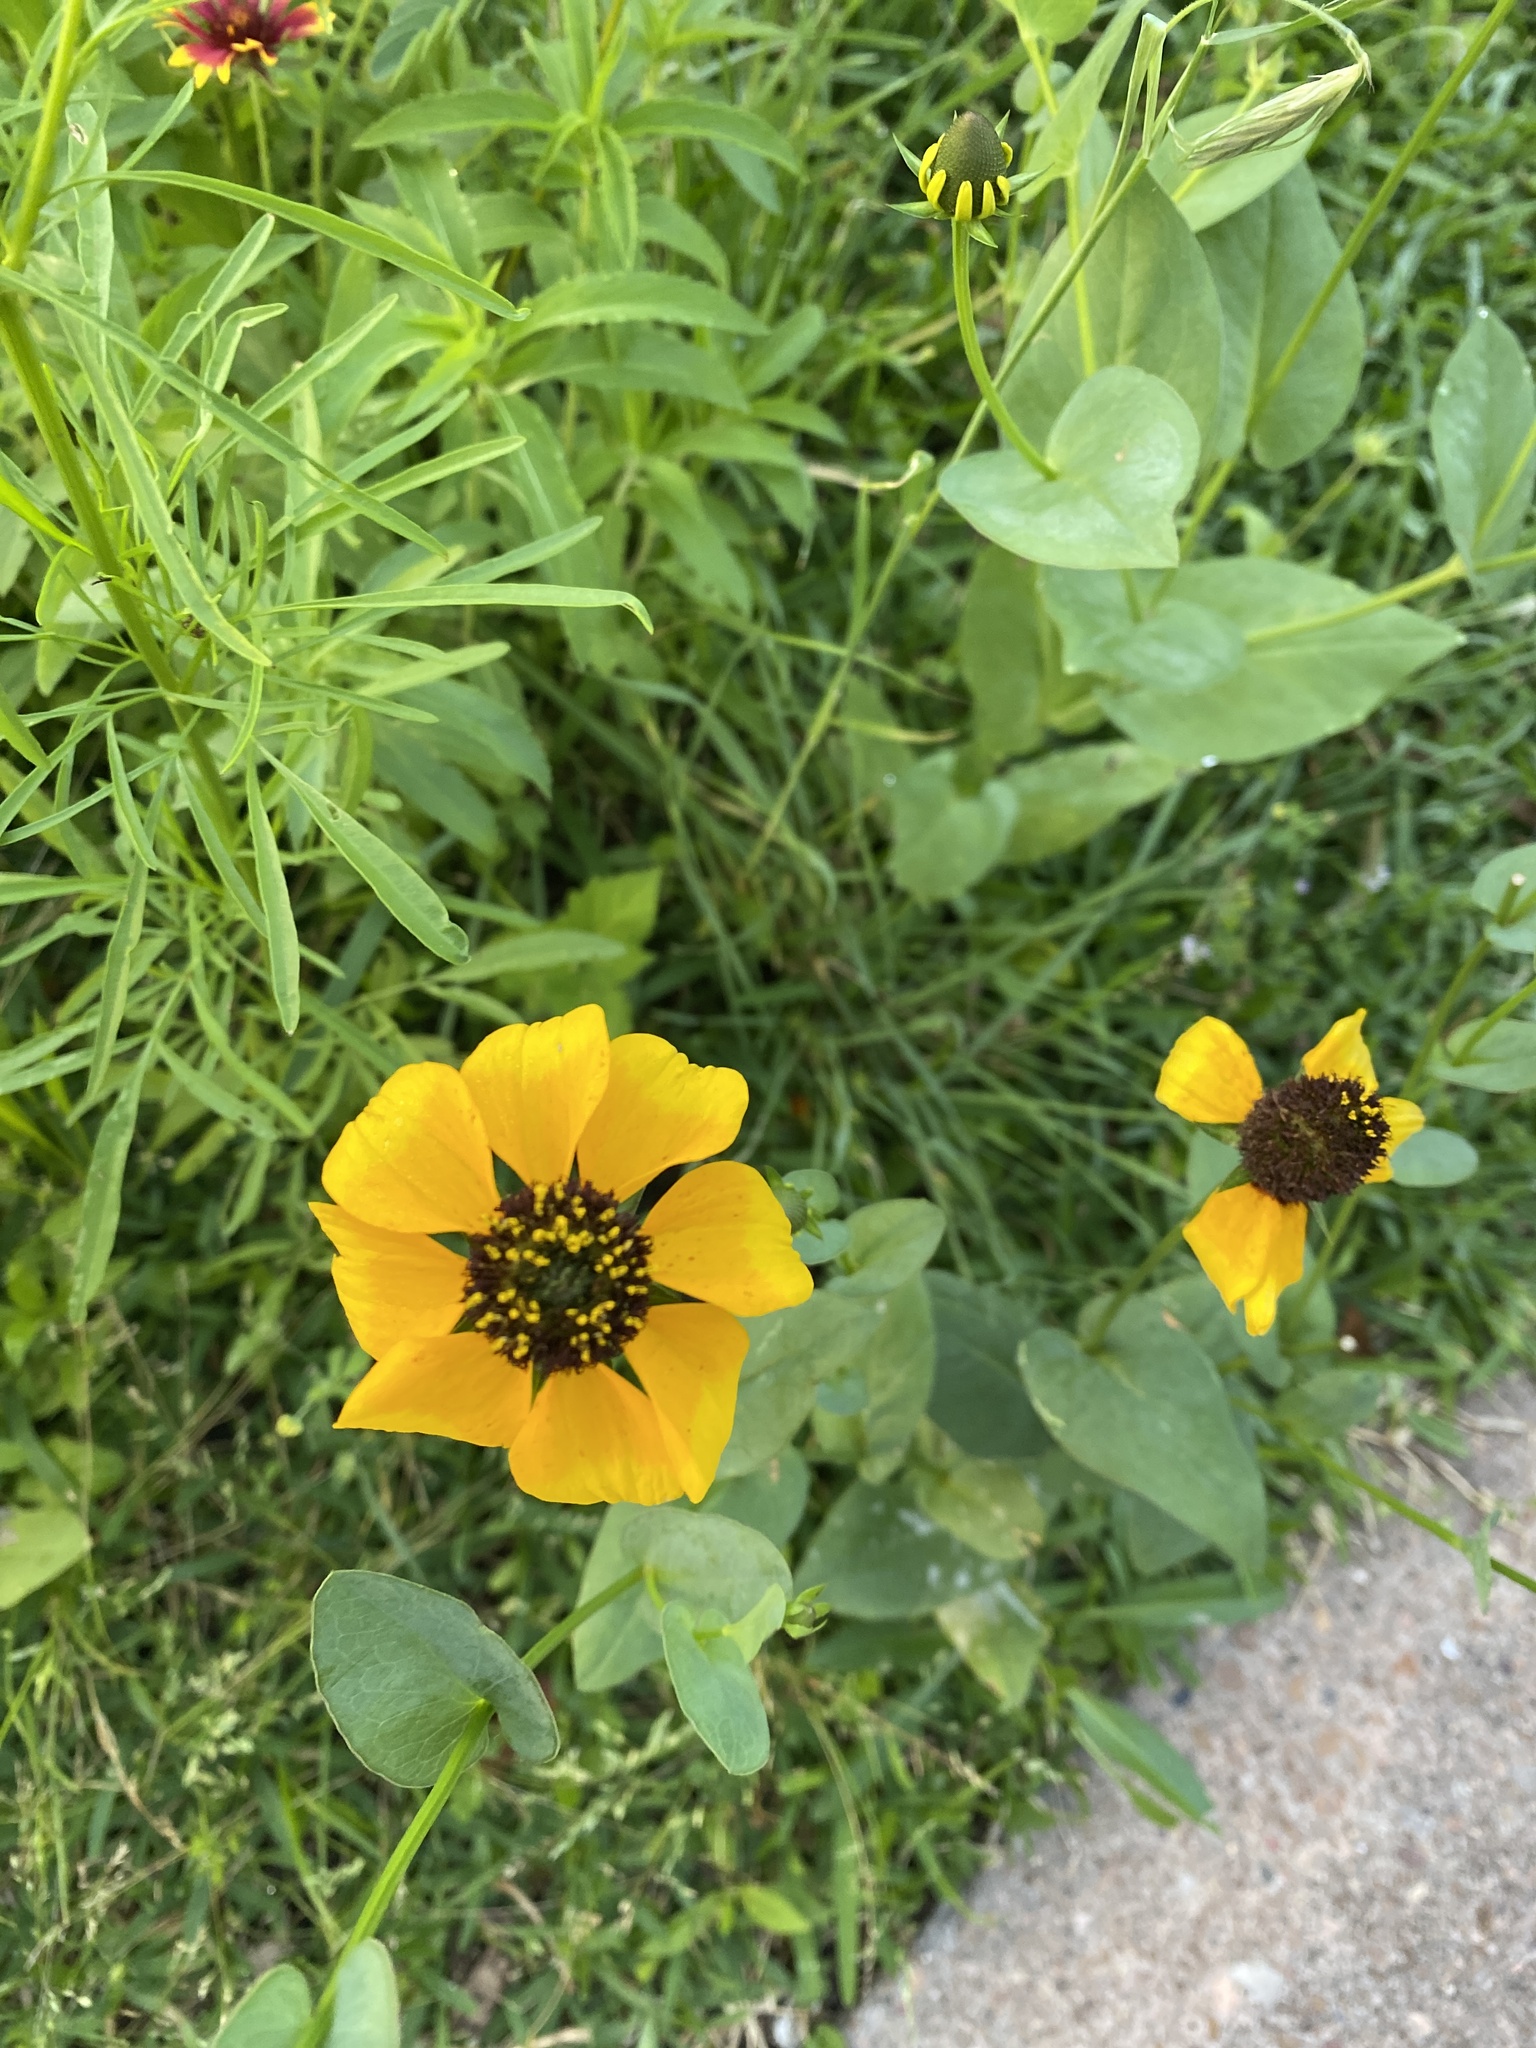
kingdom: Plantae
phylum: Tracheophyta
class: Magnoliopsida
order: Asterales
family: Asteraceae
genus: Rudbeckia
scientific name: Rudbeckia amplexicaulis
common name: Clasping-leaf coneflower
